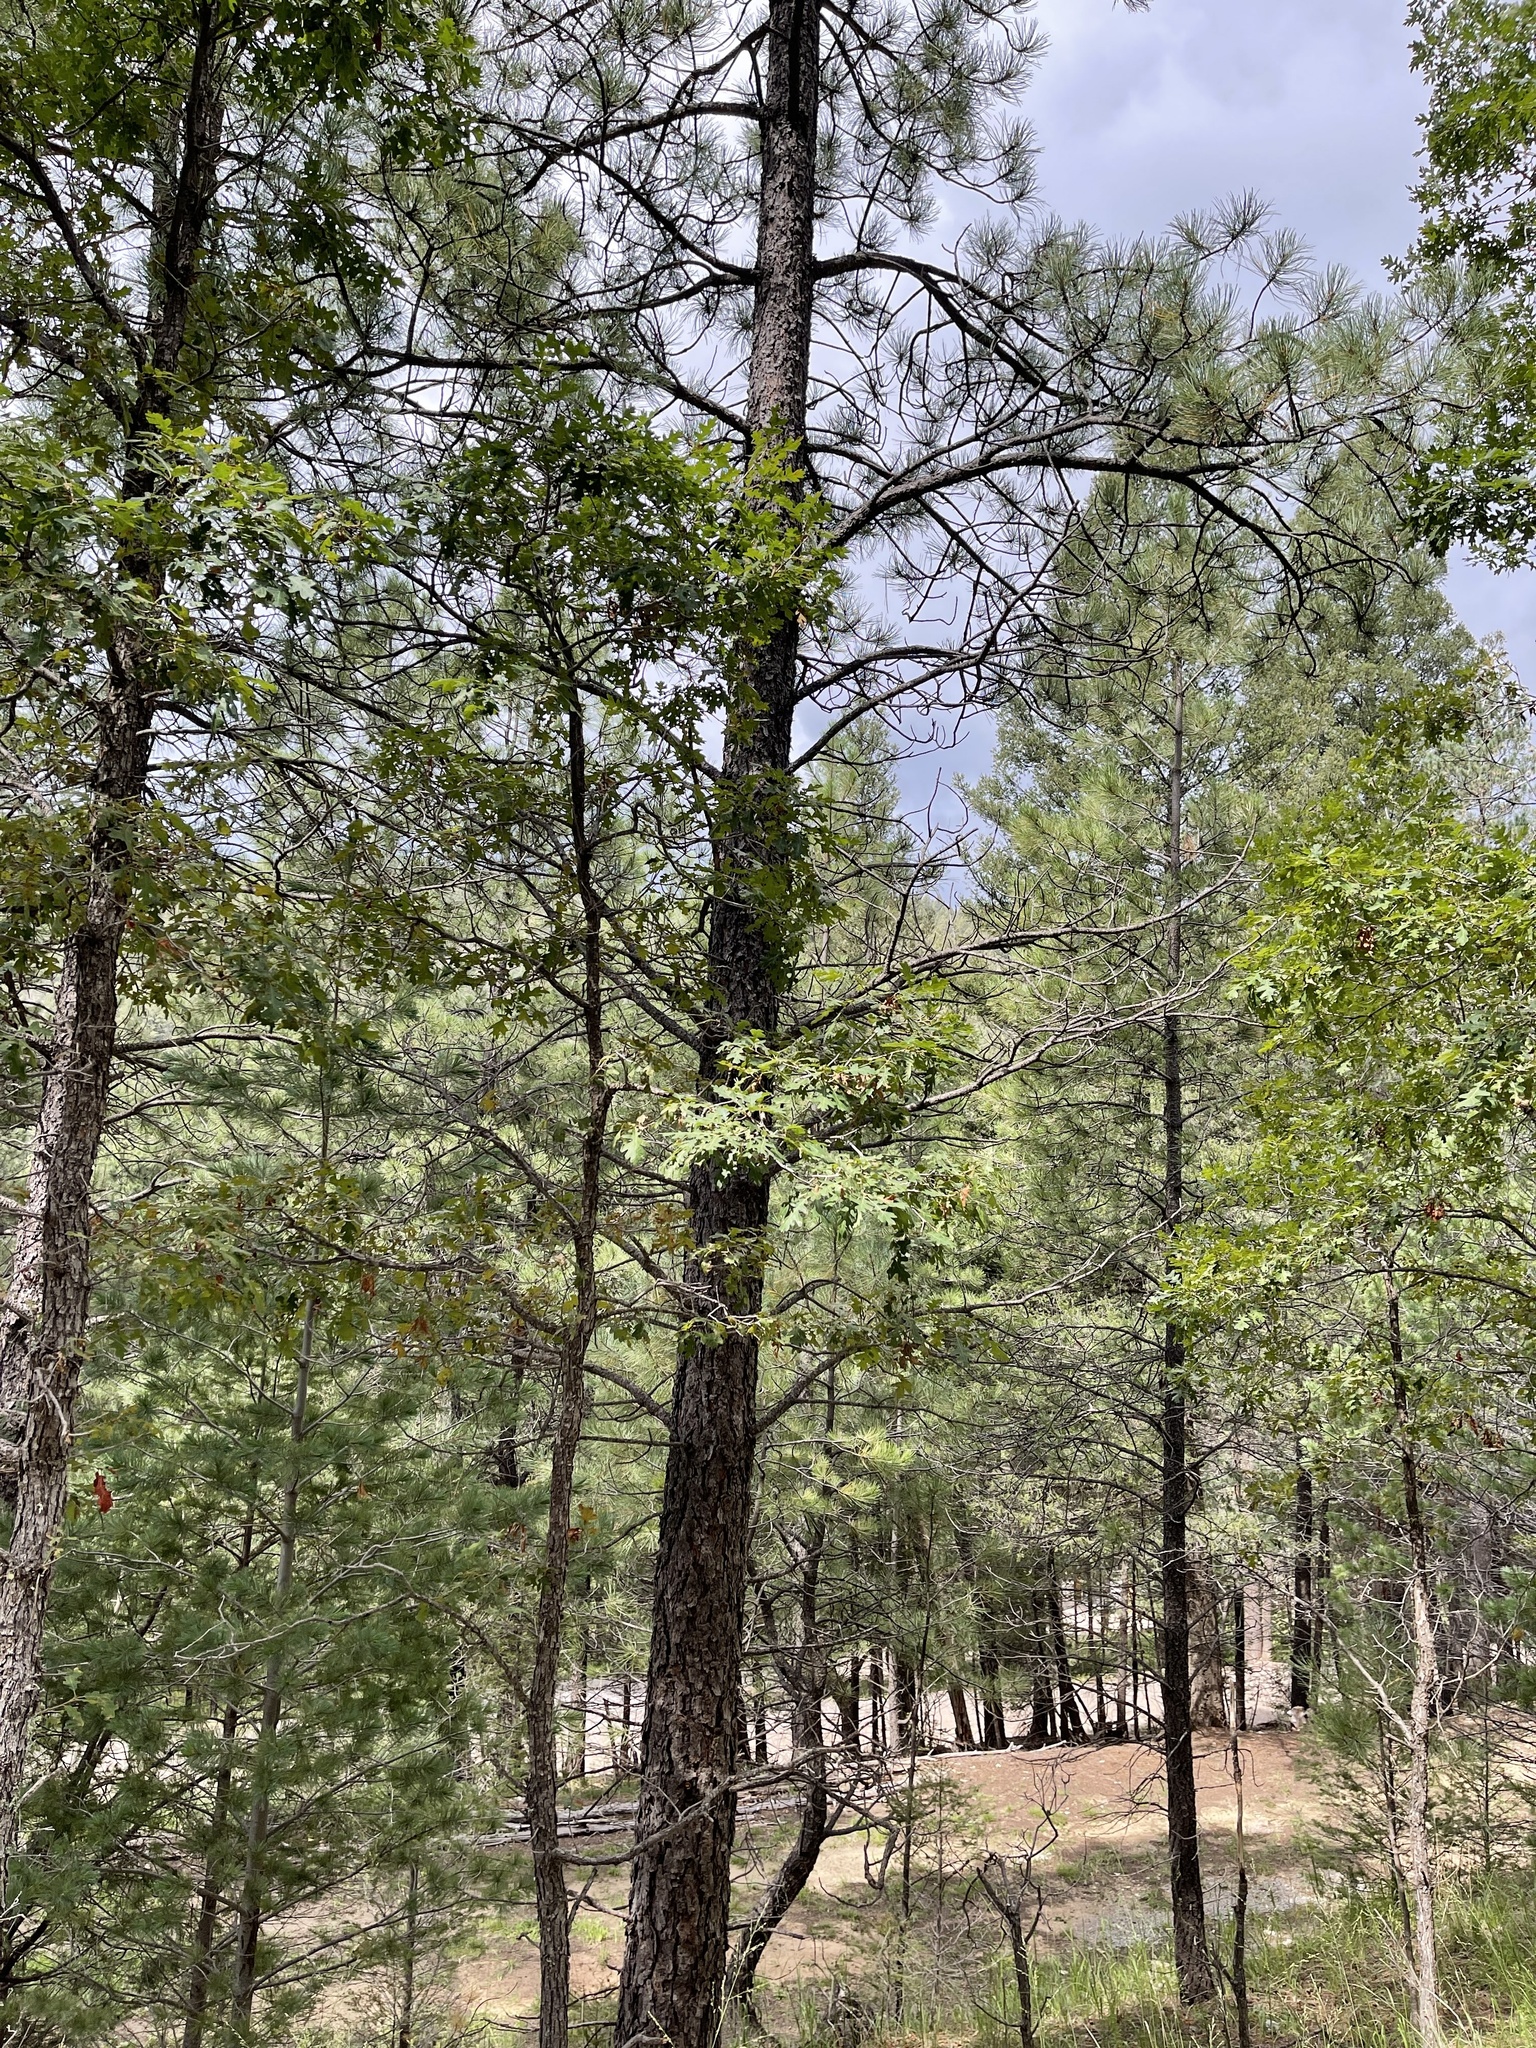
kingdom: Plantae
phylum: Tracheophyta
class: Magnoliopsida
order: Fagales
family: Fagaceae
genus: Quercus
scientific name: Quercus gambelii
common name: Gambel oak
